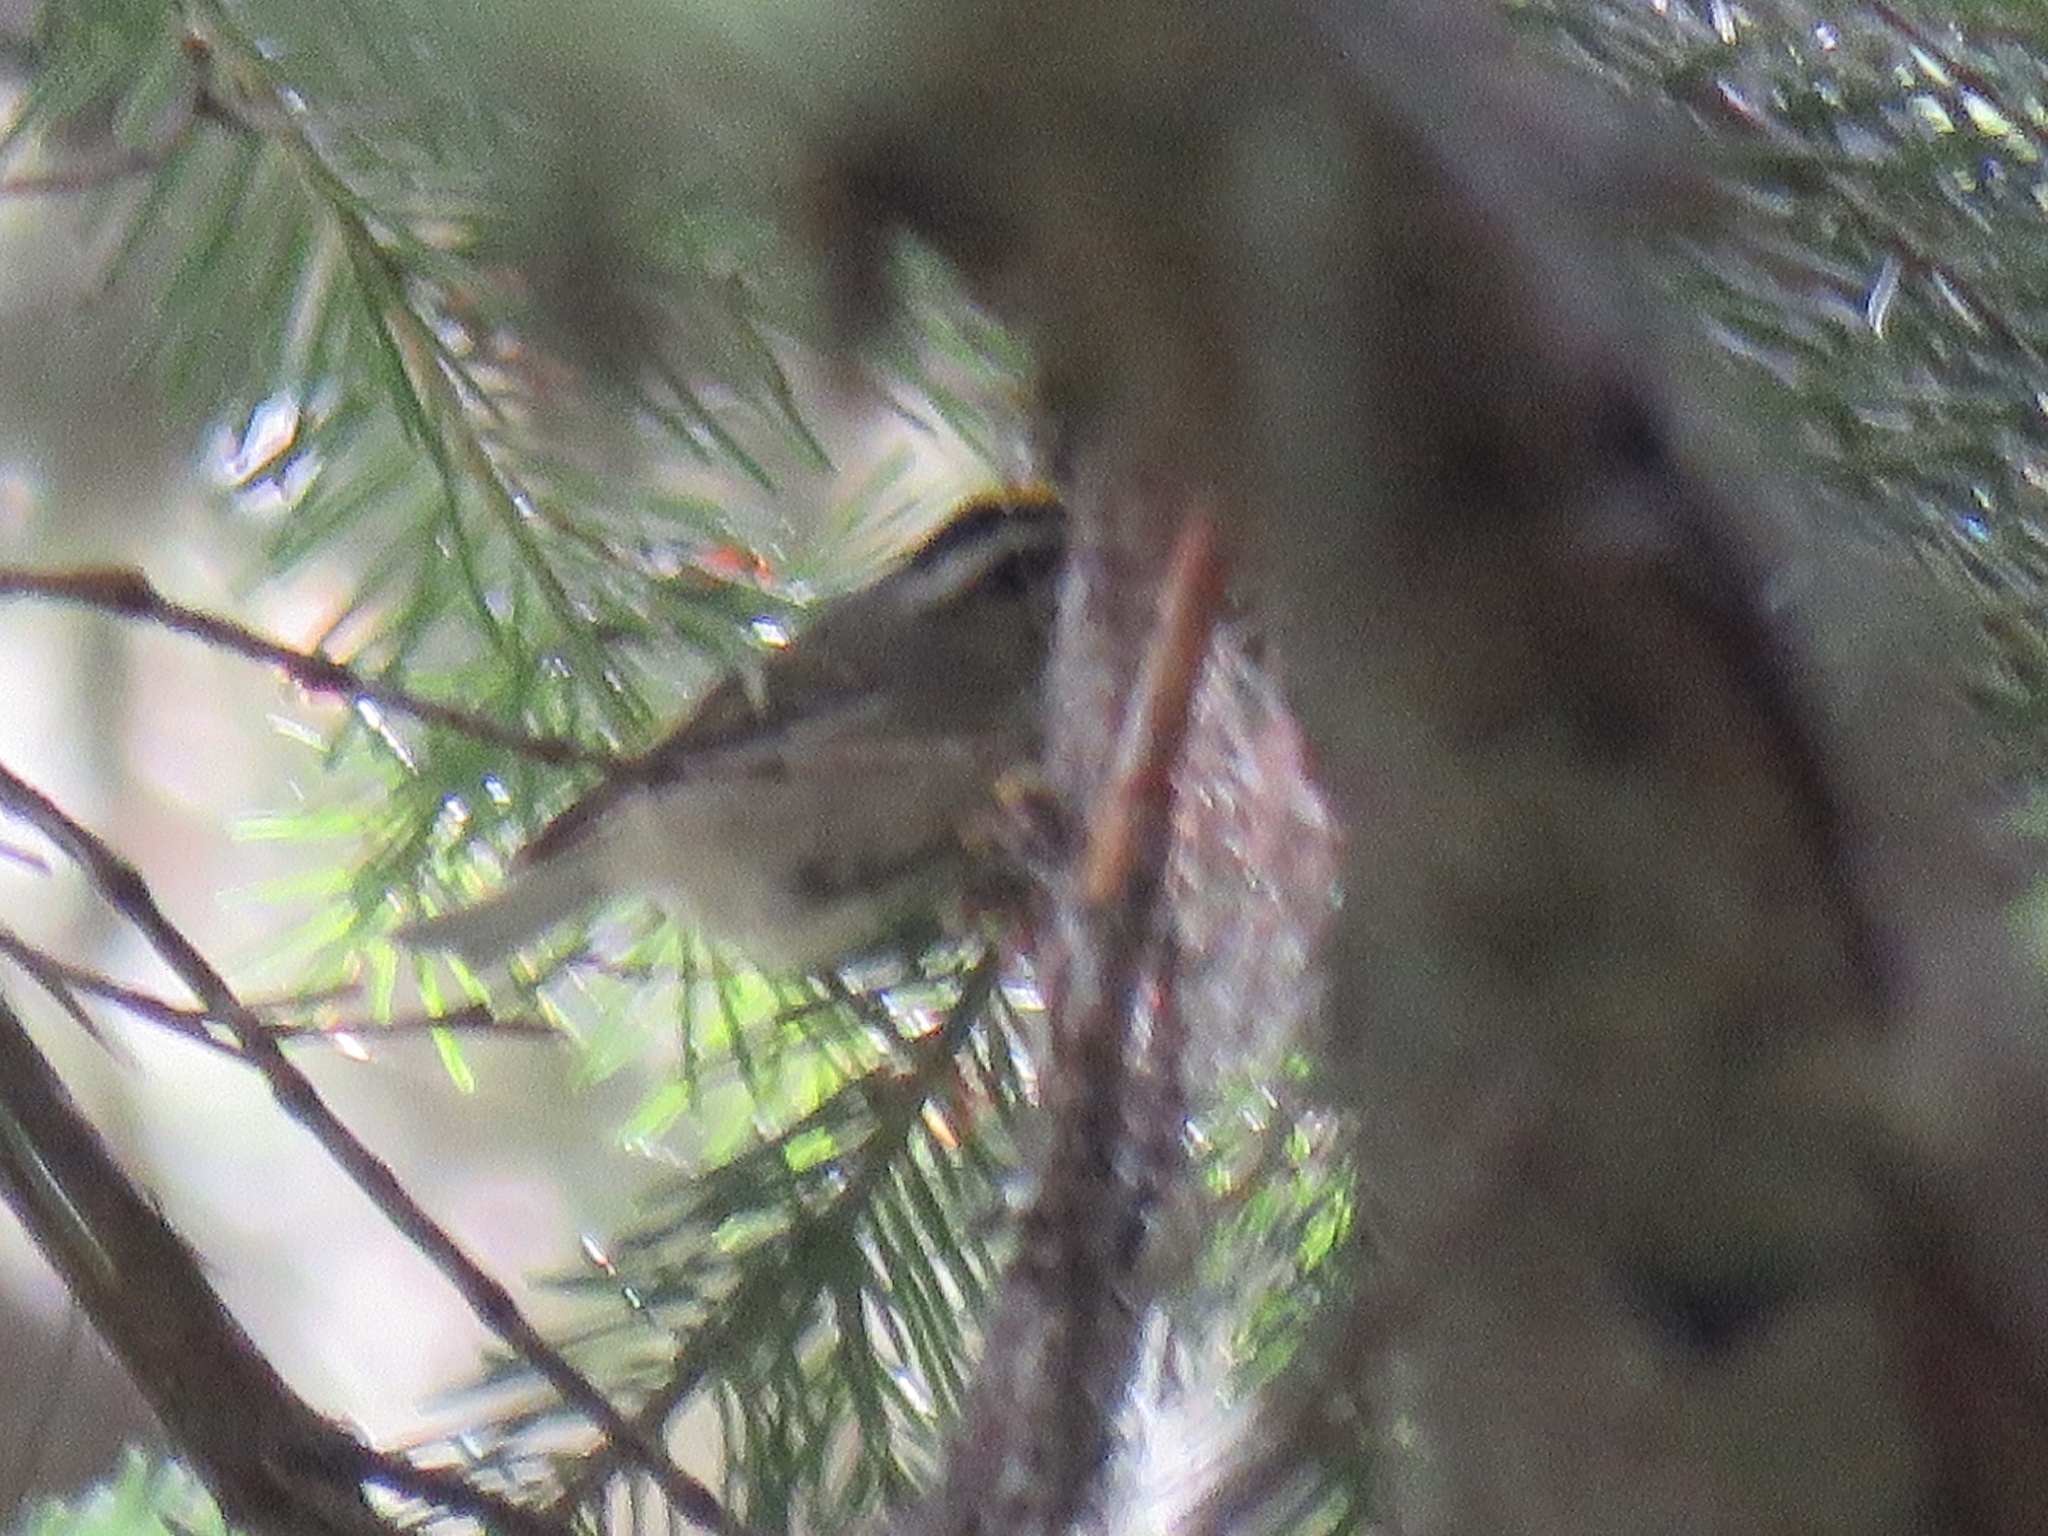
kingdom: Animalia
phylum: Chordata
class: Aves
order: Passeriformes
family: Regulidae
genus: Regulus
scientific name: Regulus satrapa
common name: Golden-crowned kinglet
